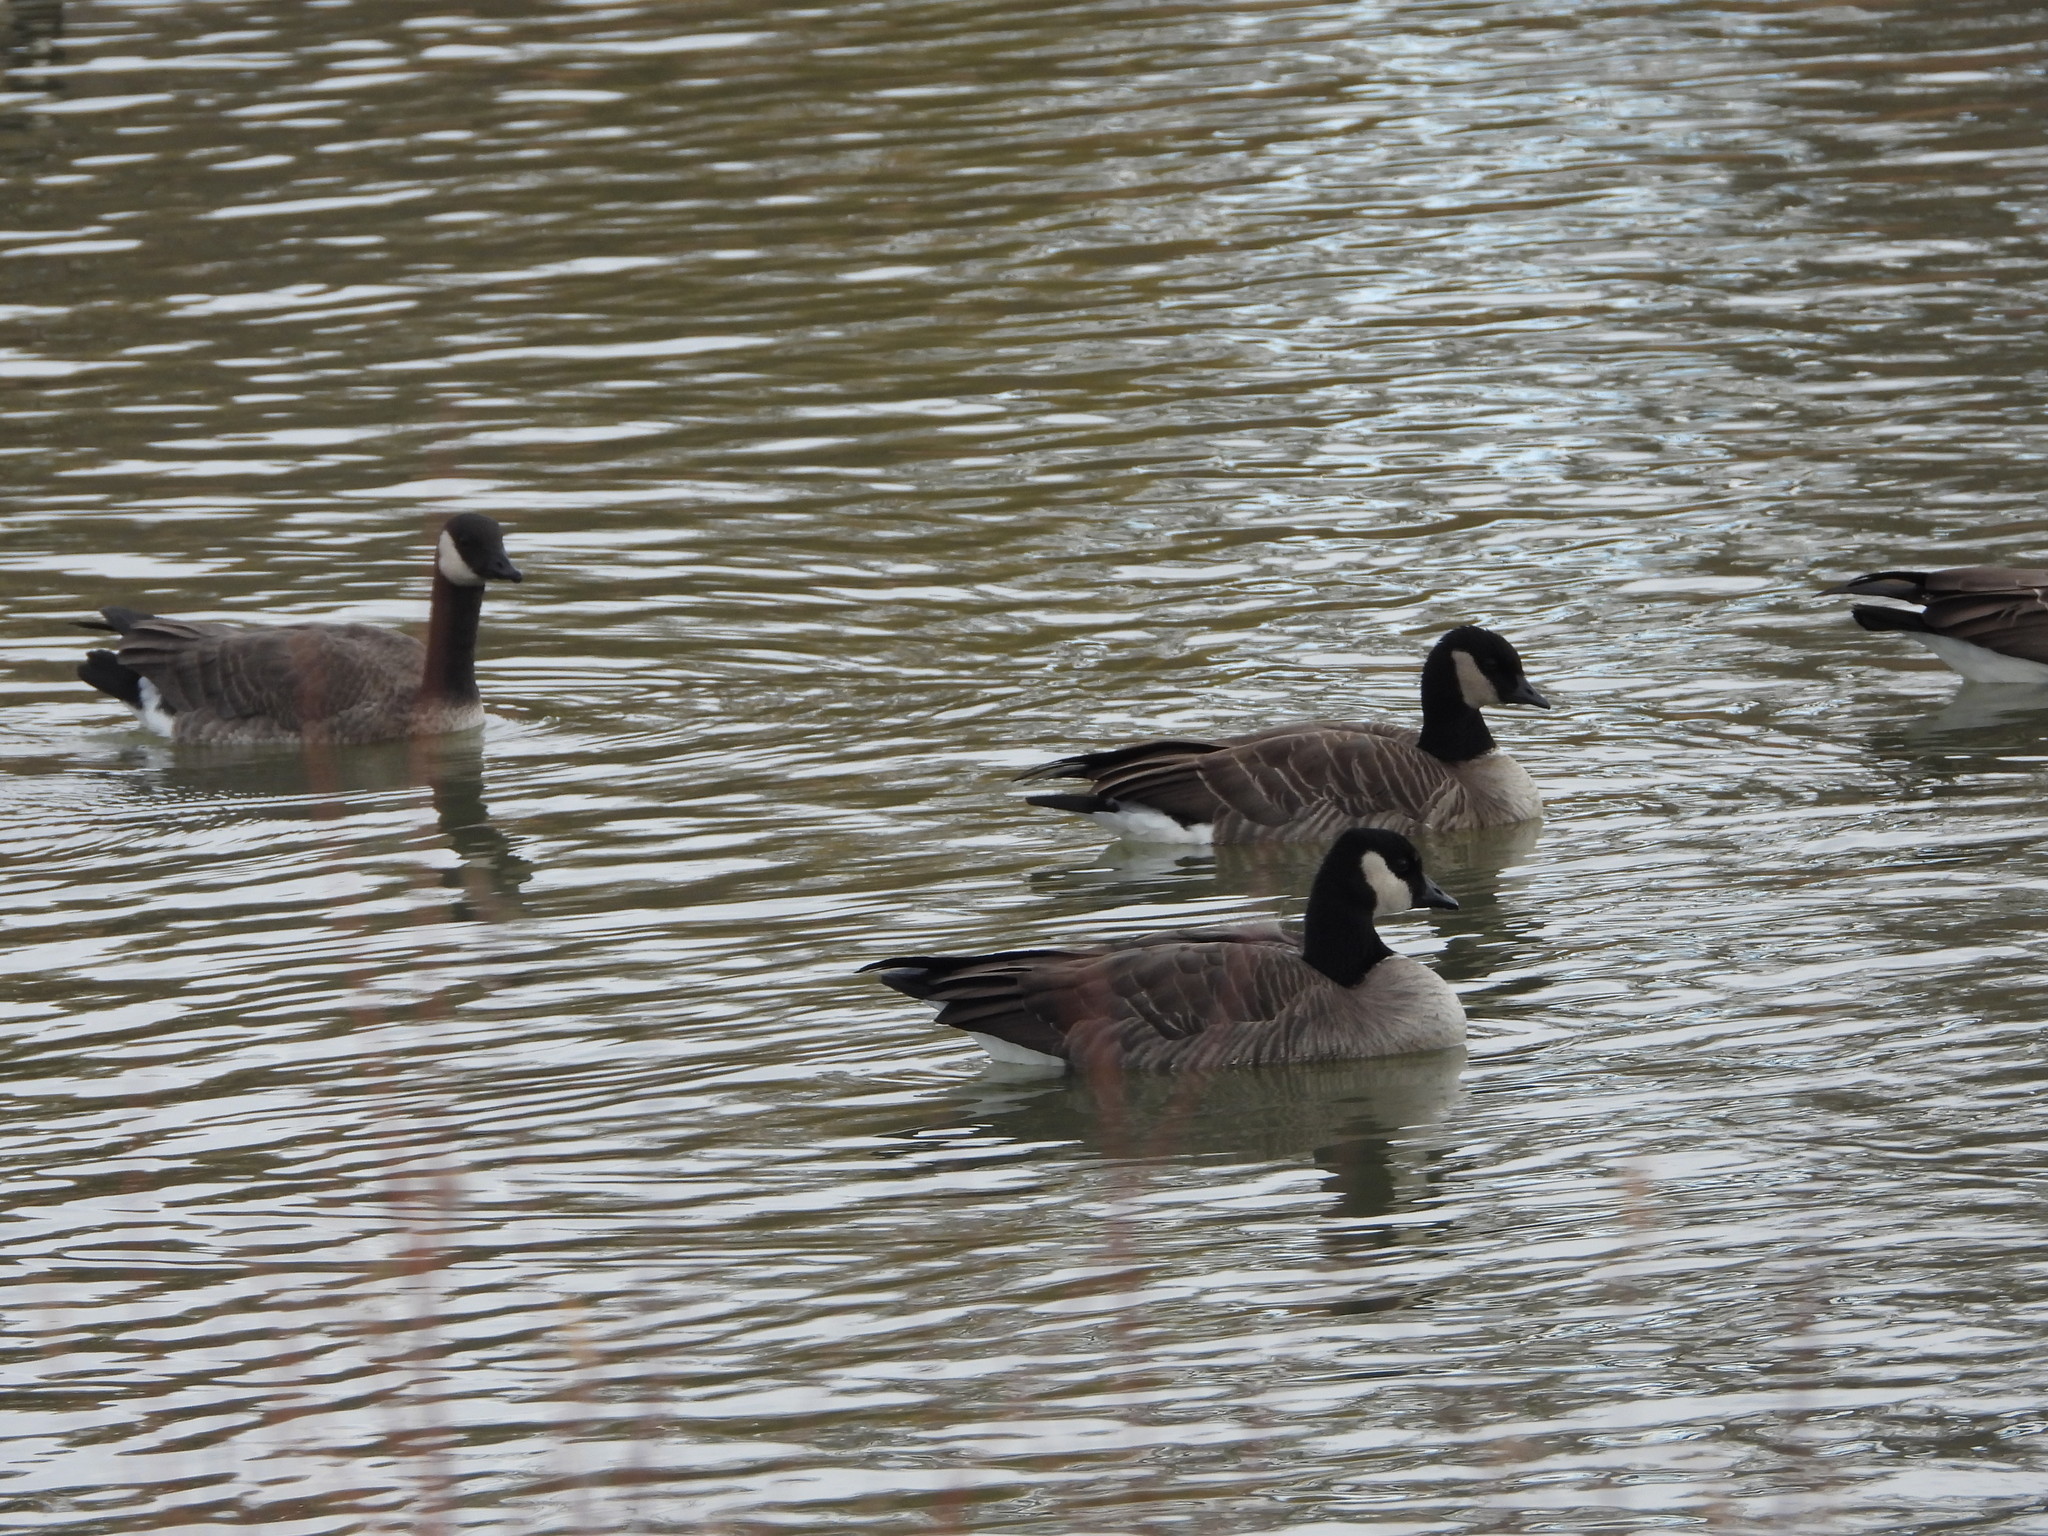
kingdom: Animalia
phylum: Chordata
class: Aves
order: Anseriformes
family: Anatidae
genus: Branta
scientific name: Branta hutchinsii
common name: Cackling goose
